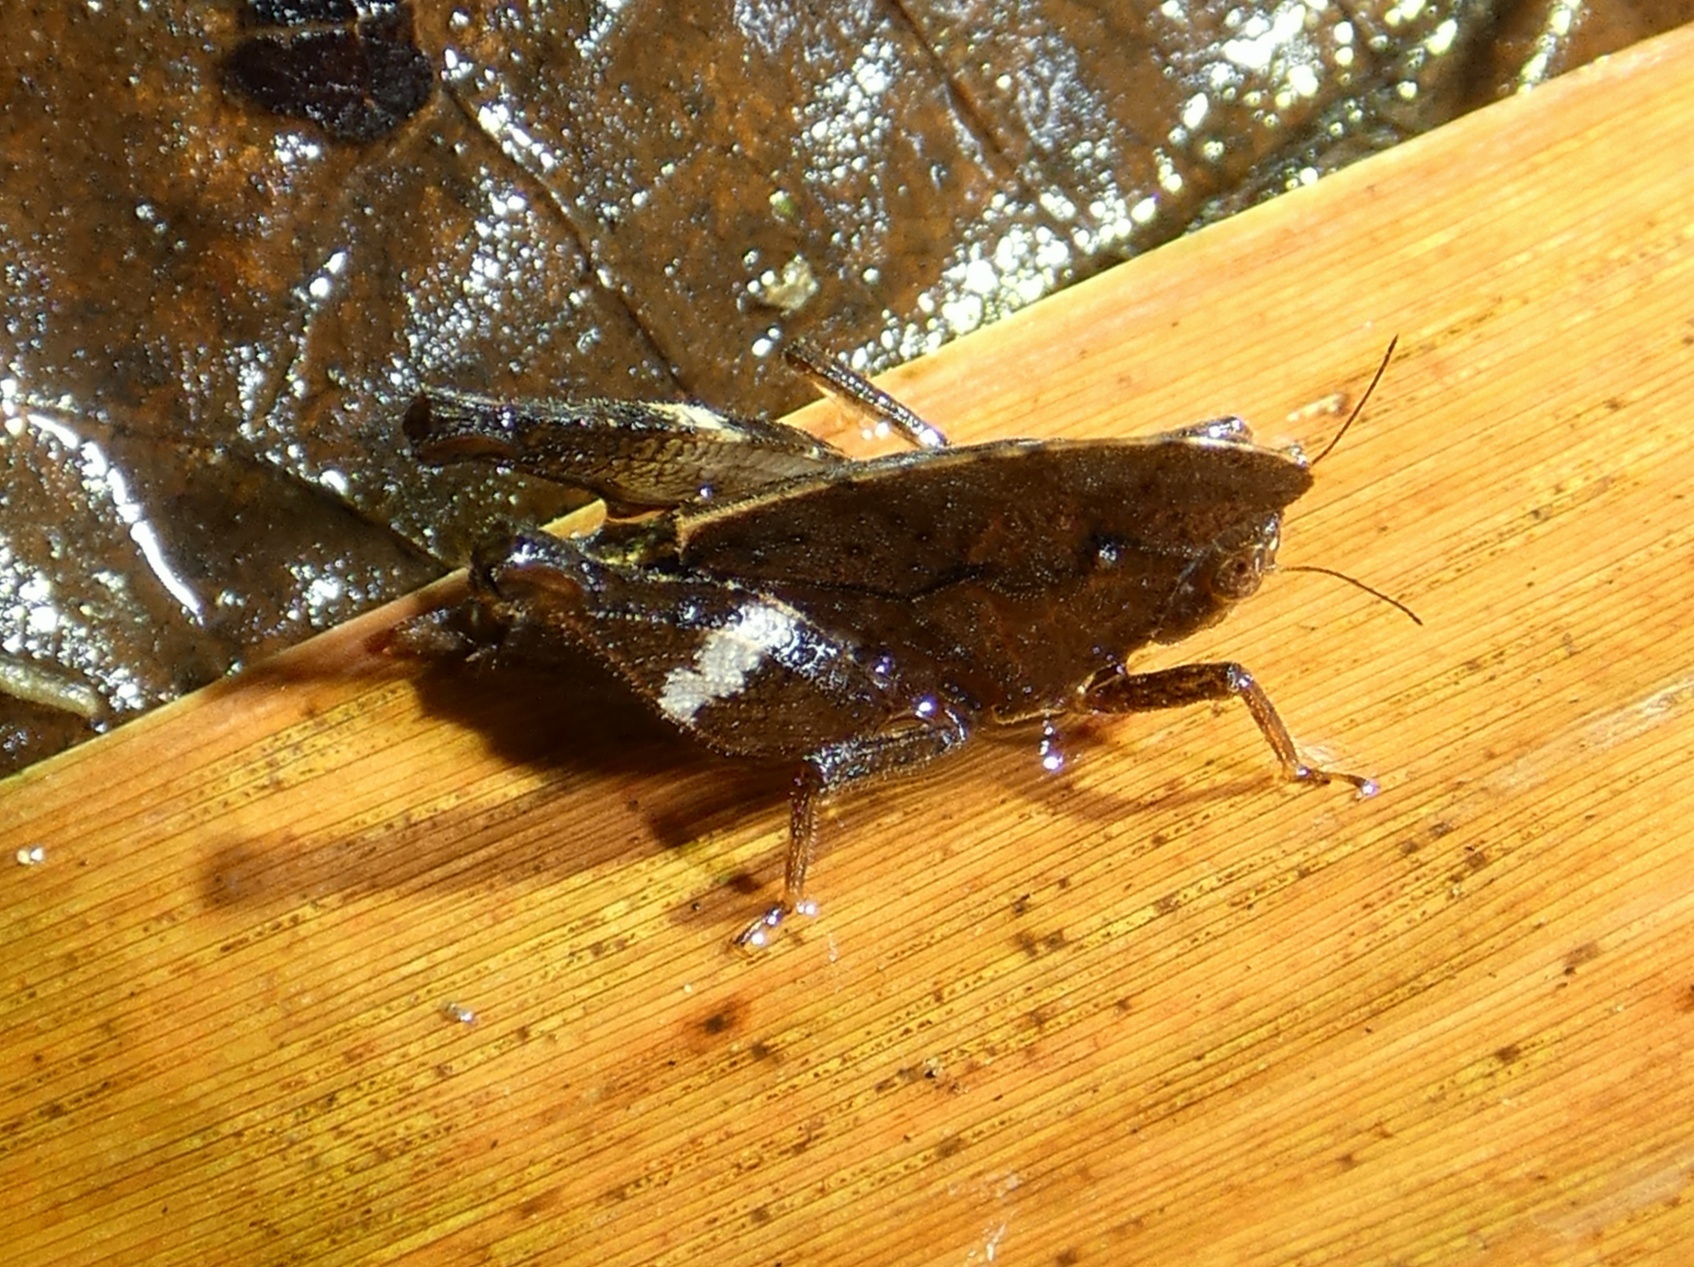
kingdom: Animalia
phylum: Arthropoda
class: Insecta
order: Orthoptera
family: Tetrigidae
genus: Selivinga
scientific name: Selivinga tribulata
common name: Tribulation helmed groundhopper
